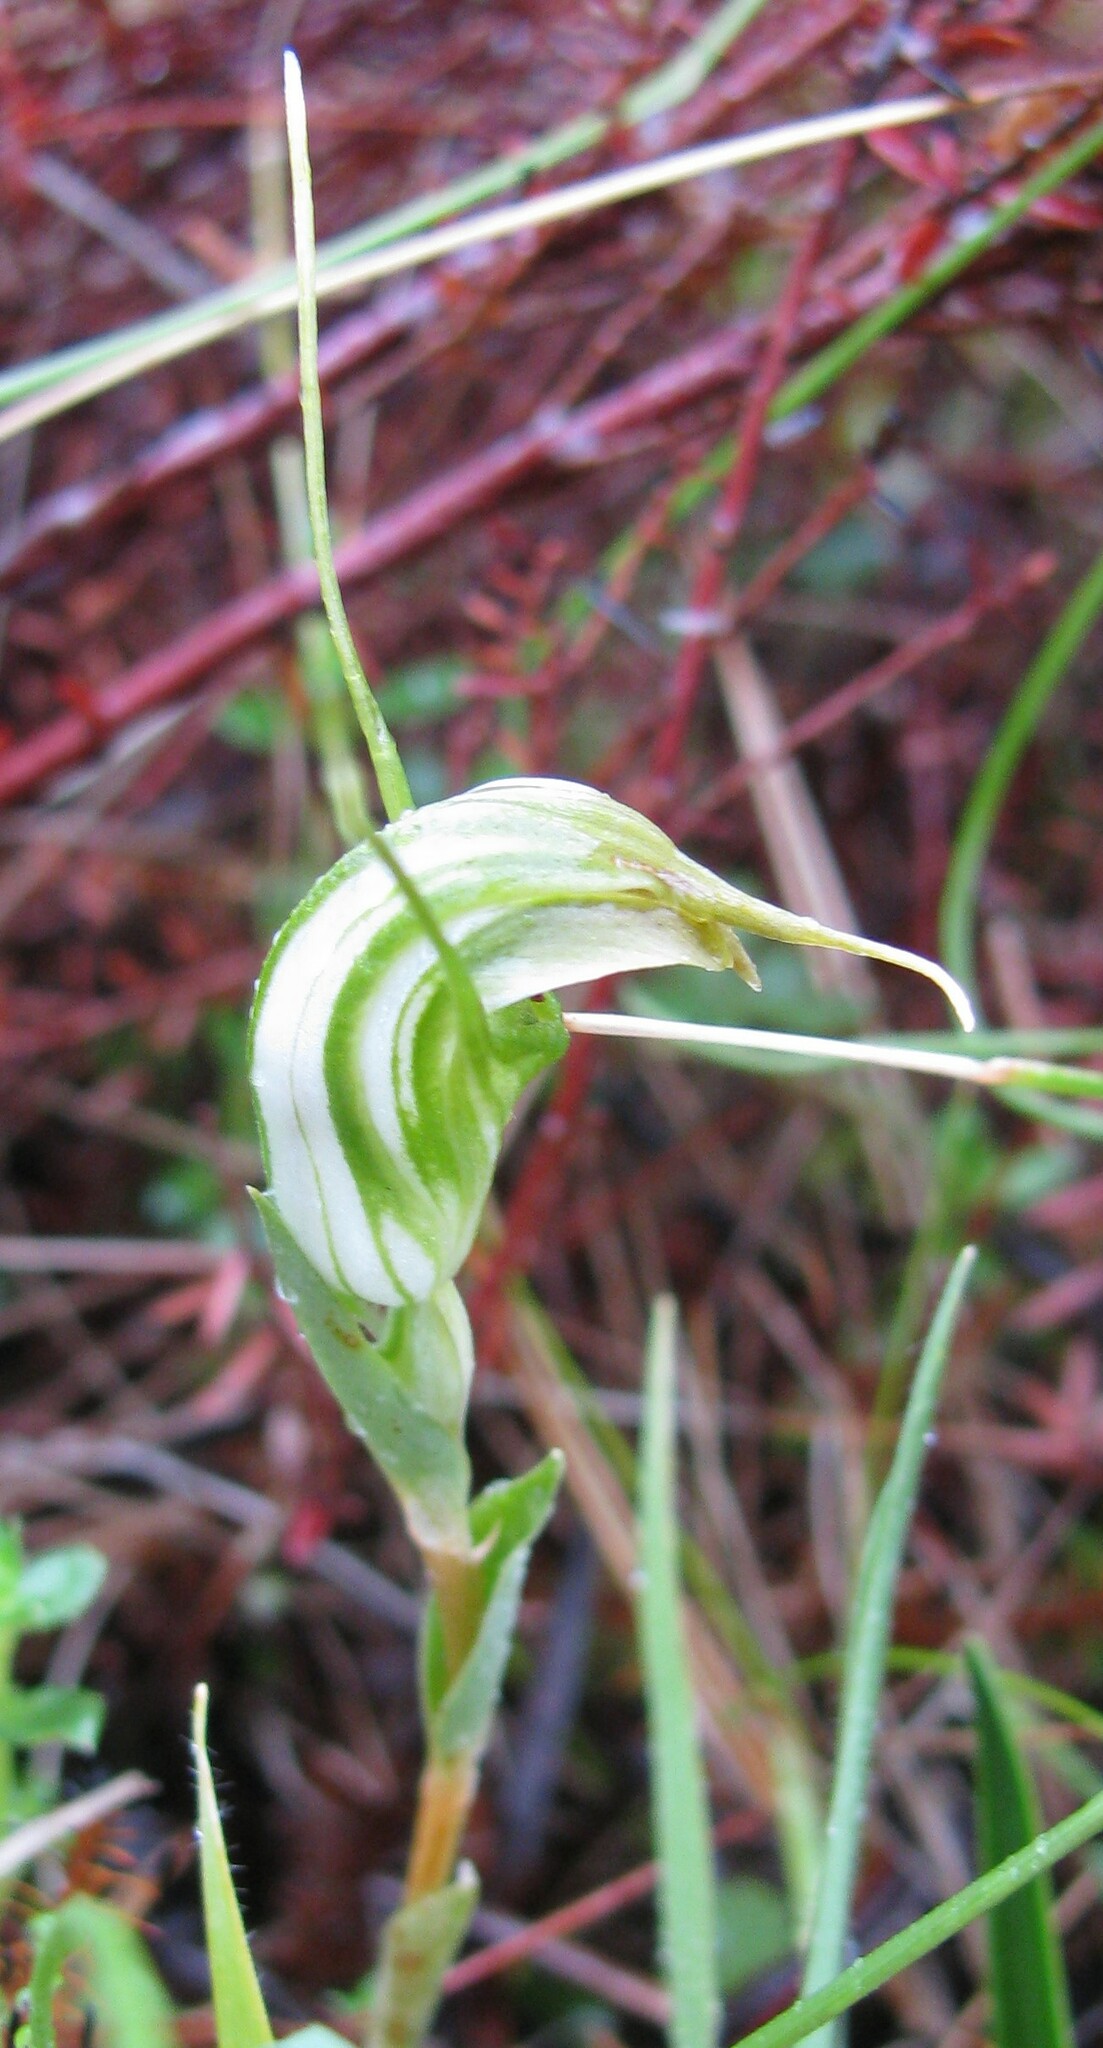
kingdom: Plantae
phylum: Tracheophyta
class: Liliopsida
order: Asparagales
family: Orchidaceae
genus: Pterostylis
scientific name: Pterostylis decurva
